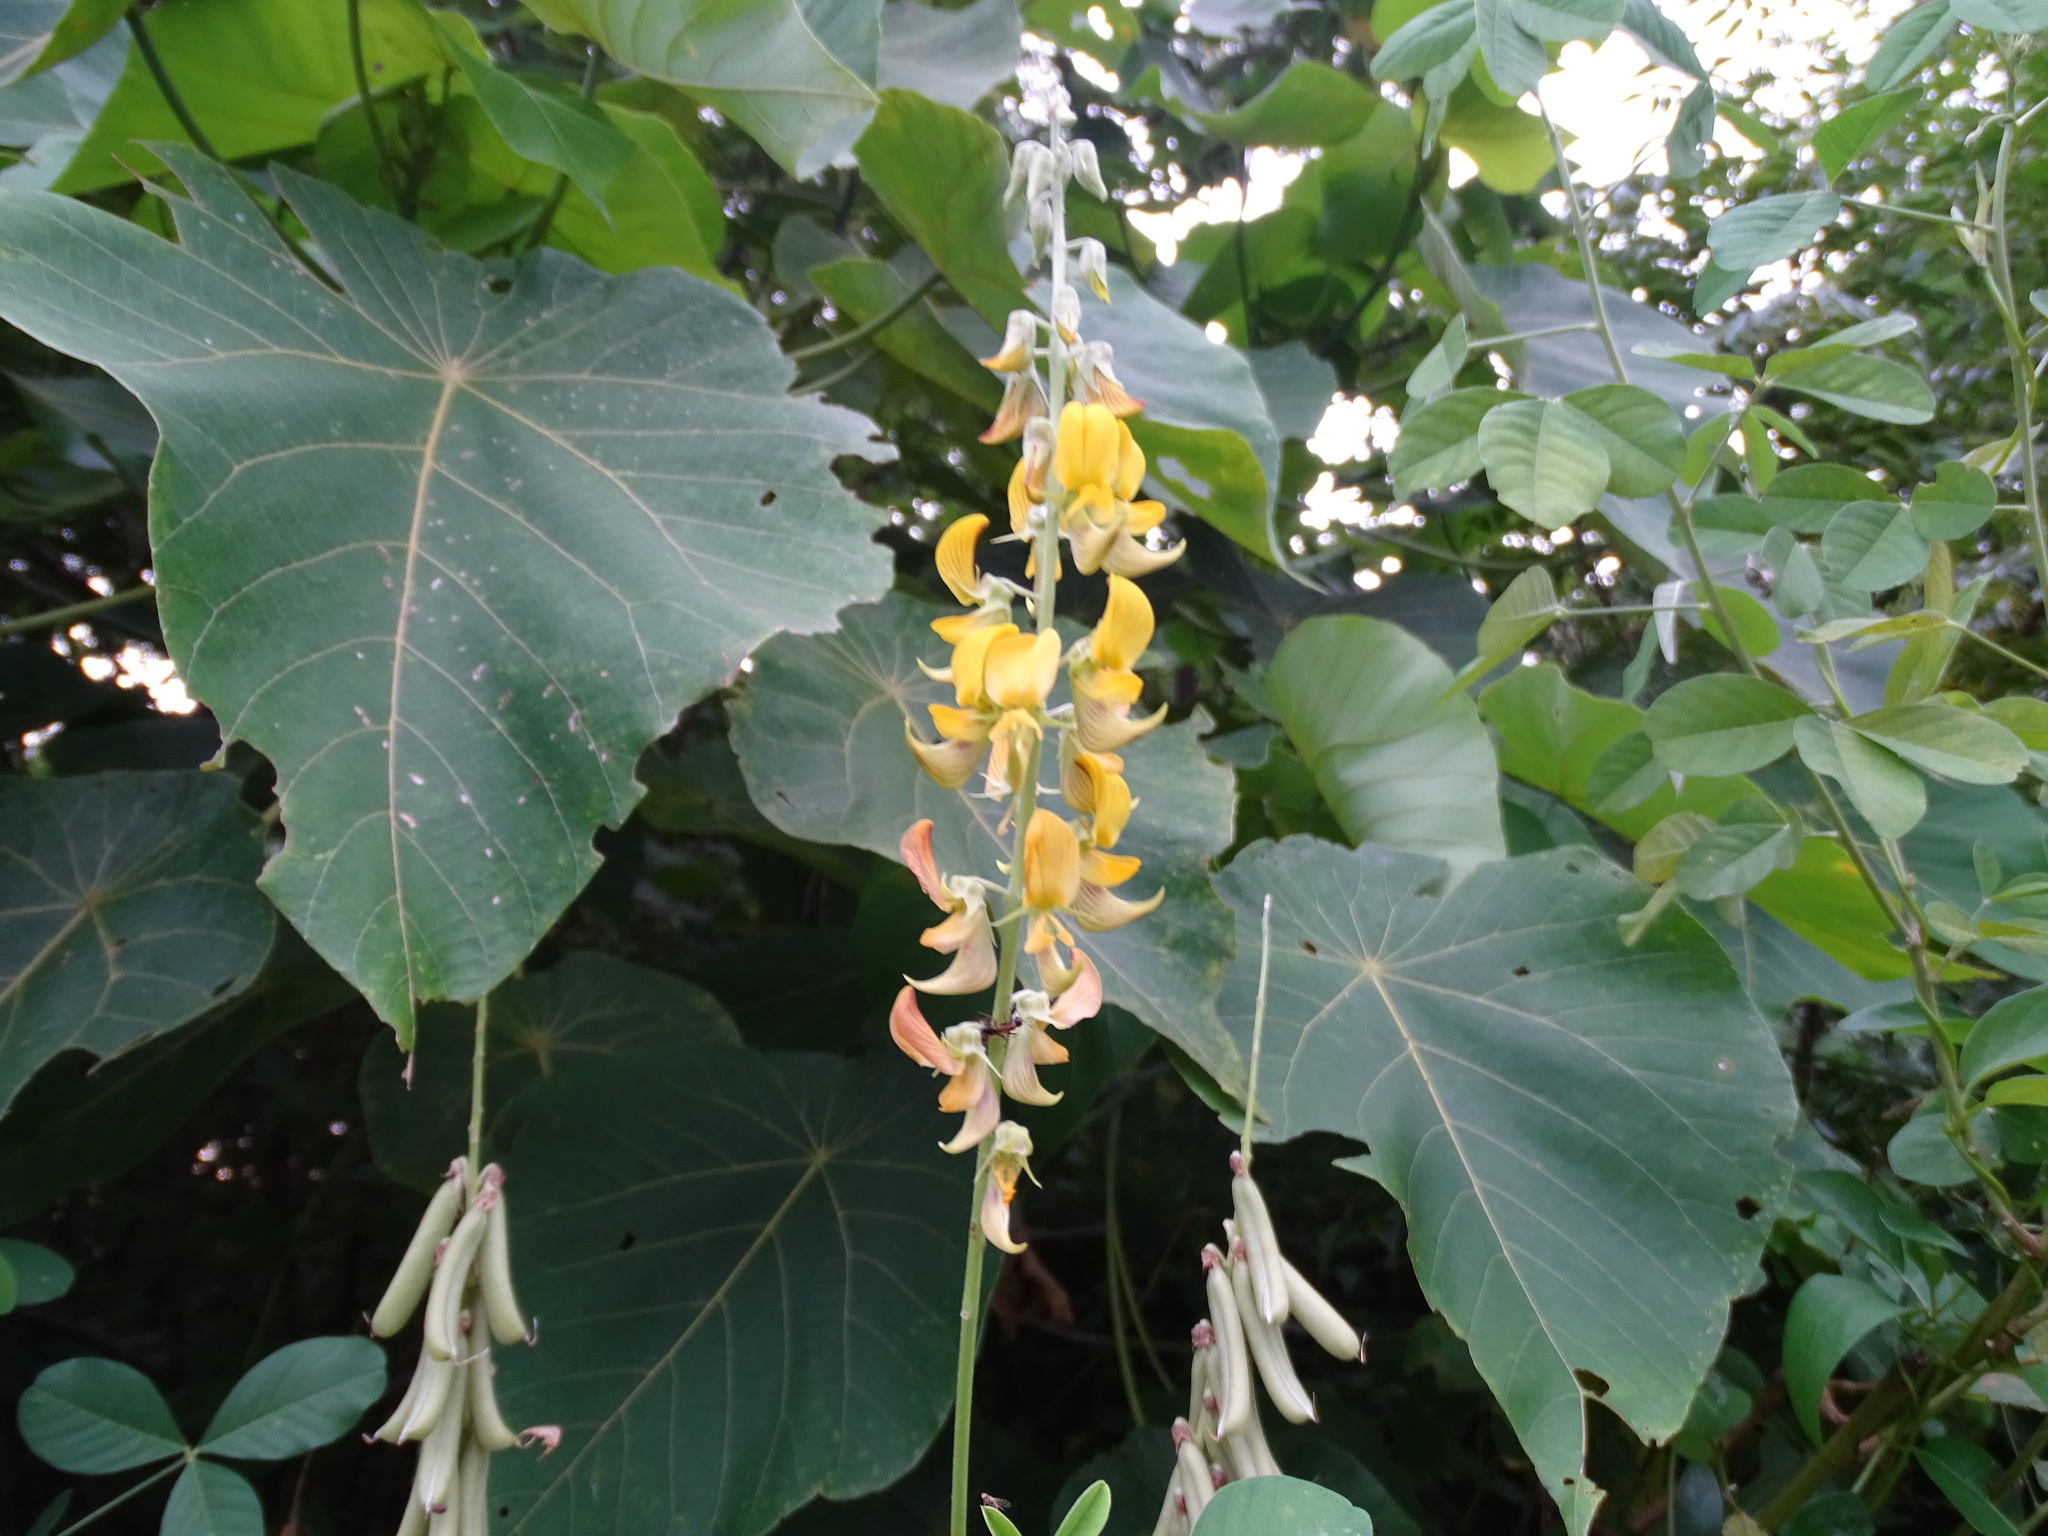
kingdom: Plantae
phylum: Tracheophyta
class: Magnoliopsida
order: Fabales
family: Fabaceae
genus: Crotalaria
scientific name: Crotalaria pallida
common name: Smooth rattlebox
